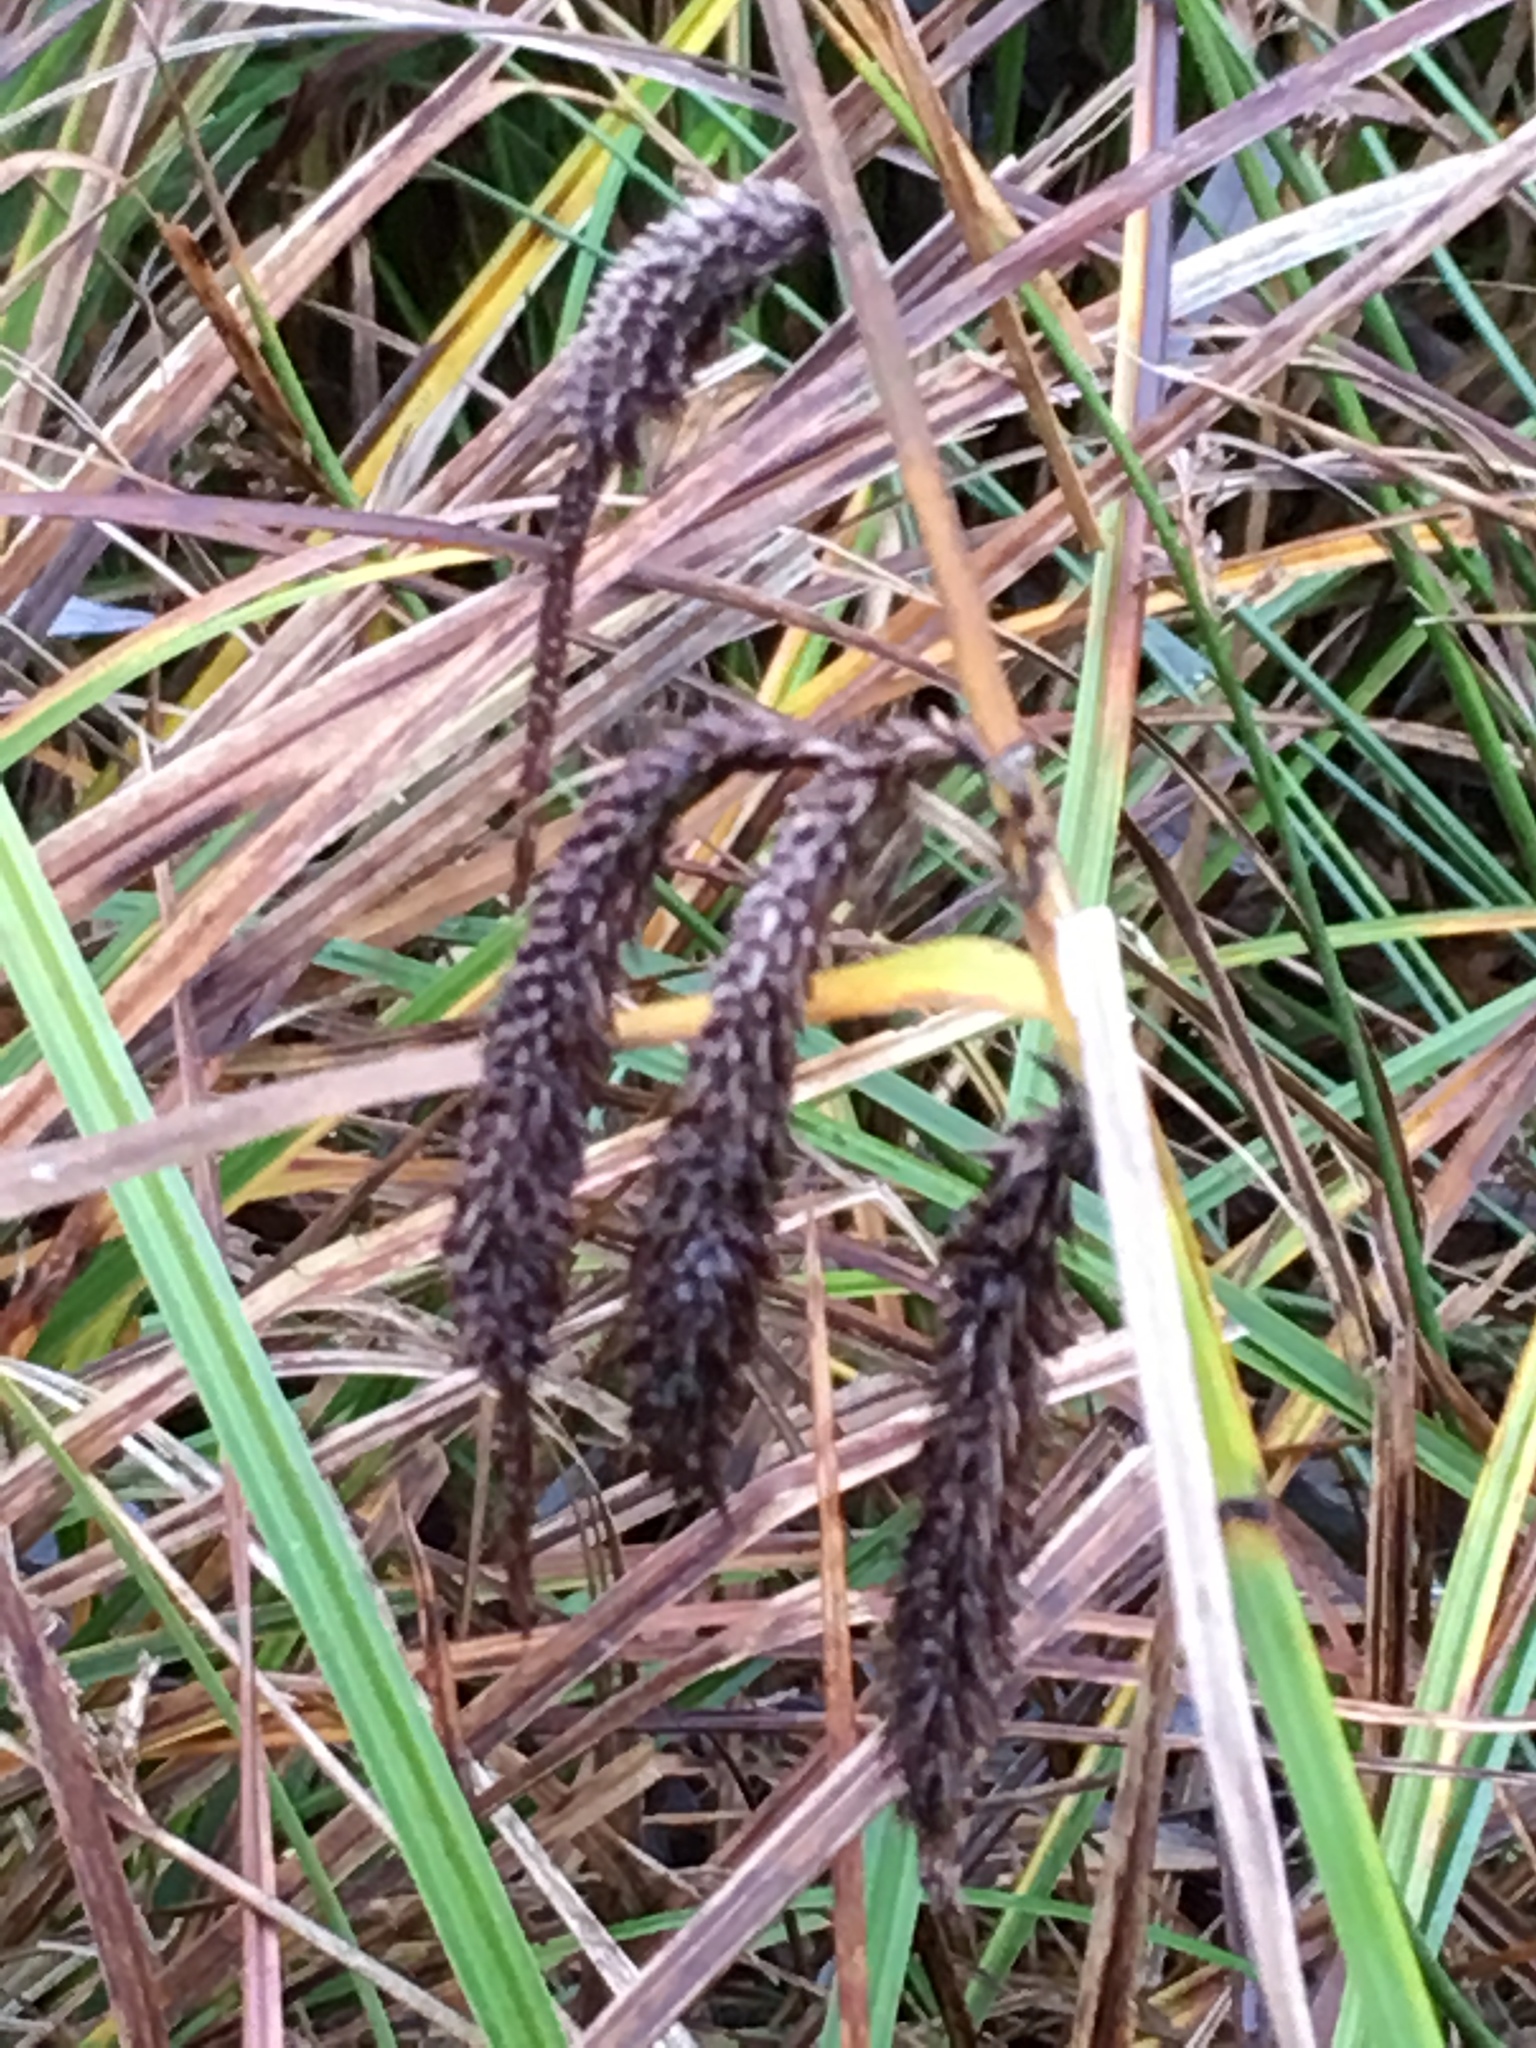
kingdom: Plantae
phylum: Tracheophyta
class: Liliopsida
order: Poales
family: Cyperaceae
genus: Carex
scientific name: Carex obnupta
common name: Slough sedge
